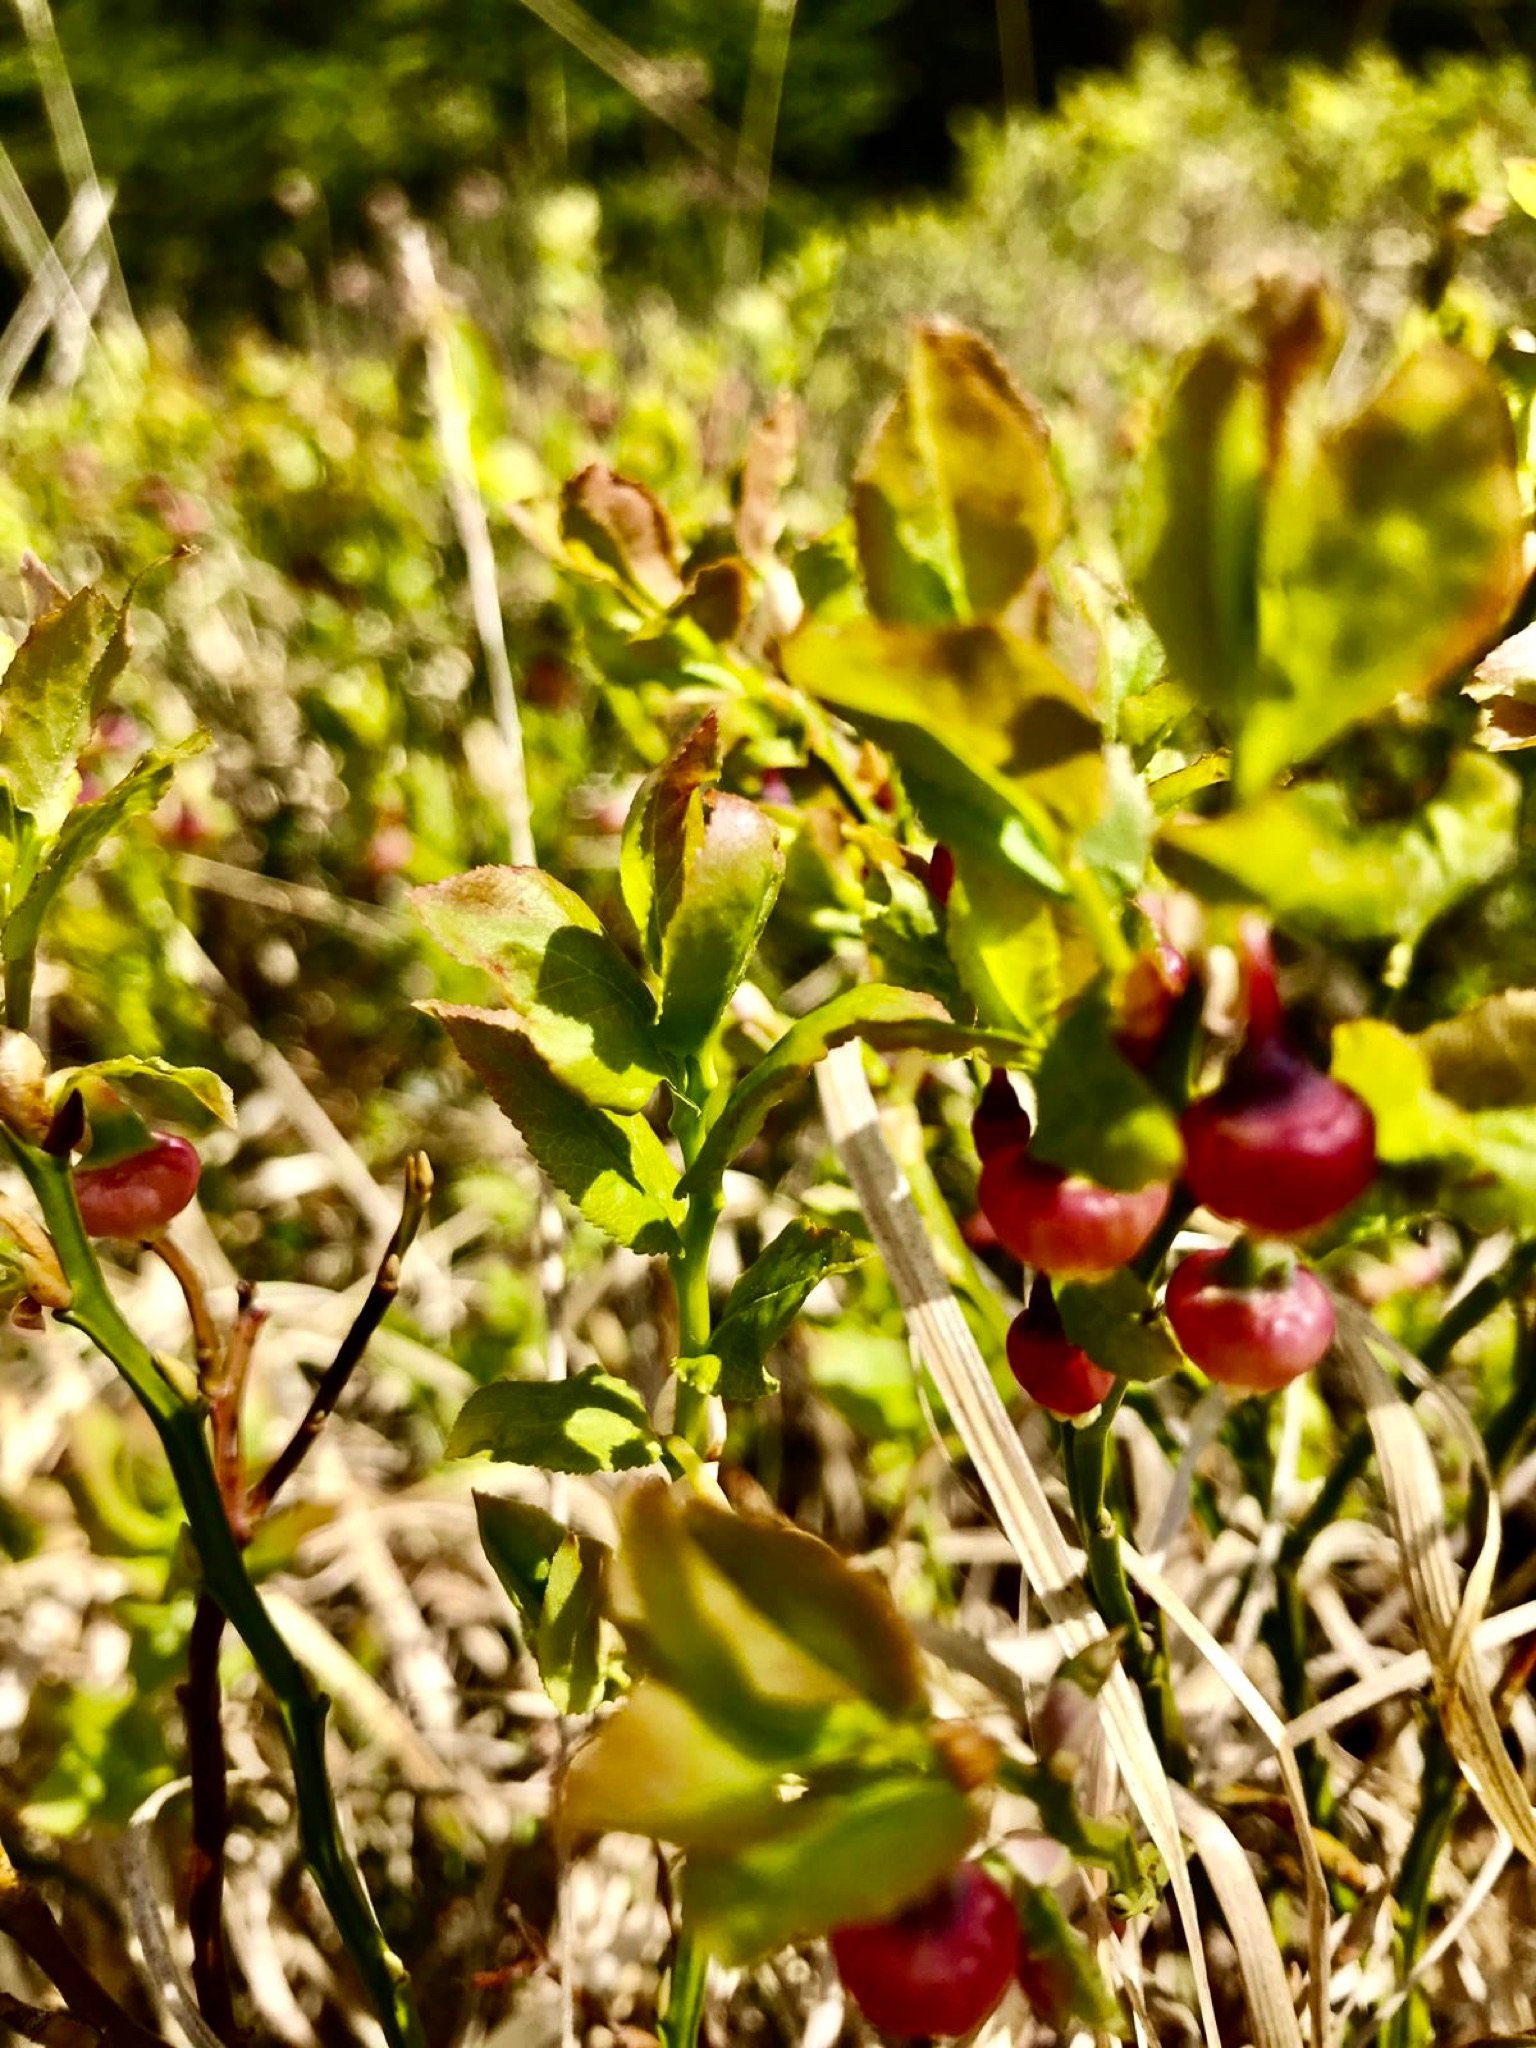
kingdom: Plantae
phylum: Tracheophyta
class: Magnoliopsida
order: Ericales
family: Ericaceae
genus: Vaccinium
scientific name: Vaccinium myrtillus
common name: Bilberry
